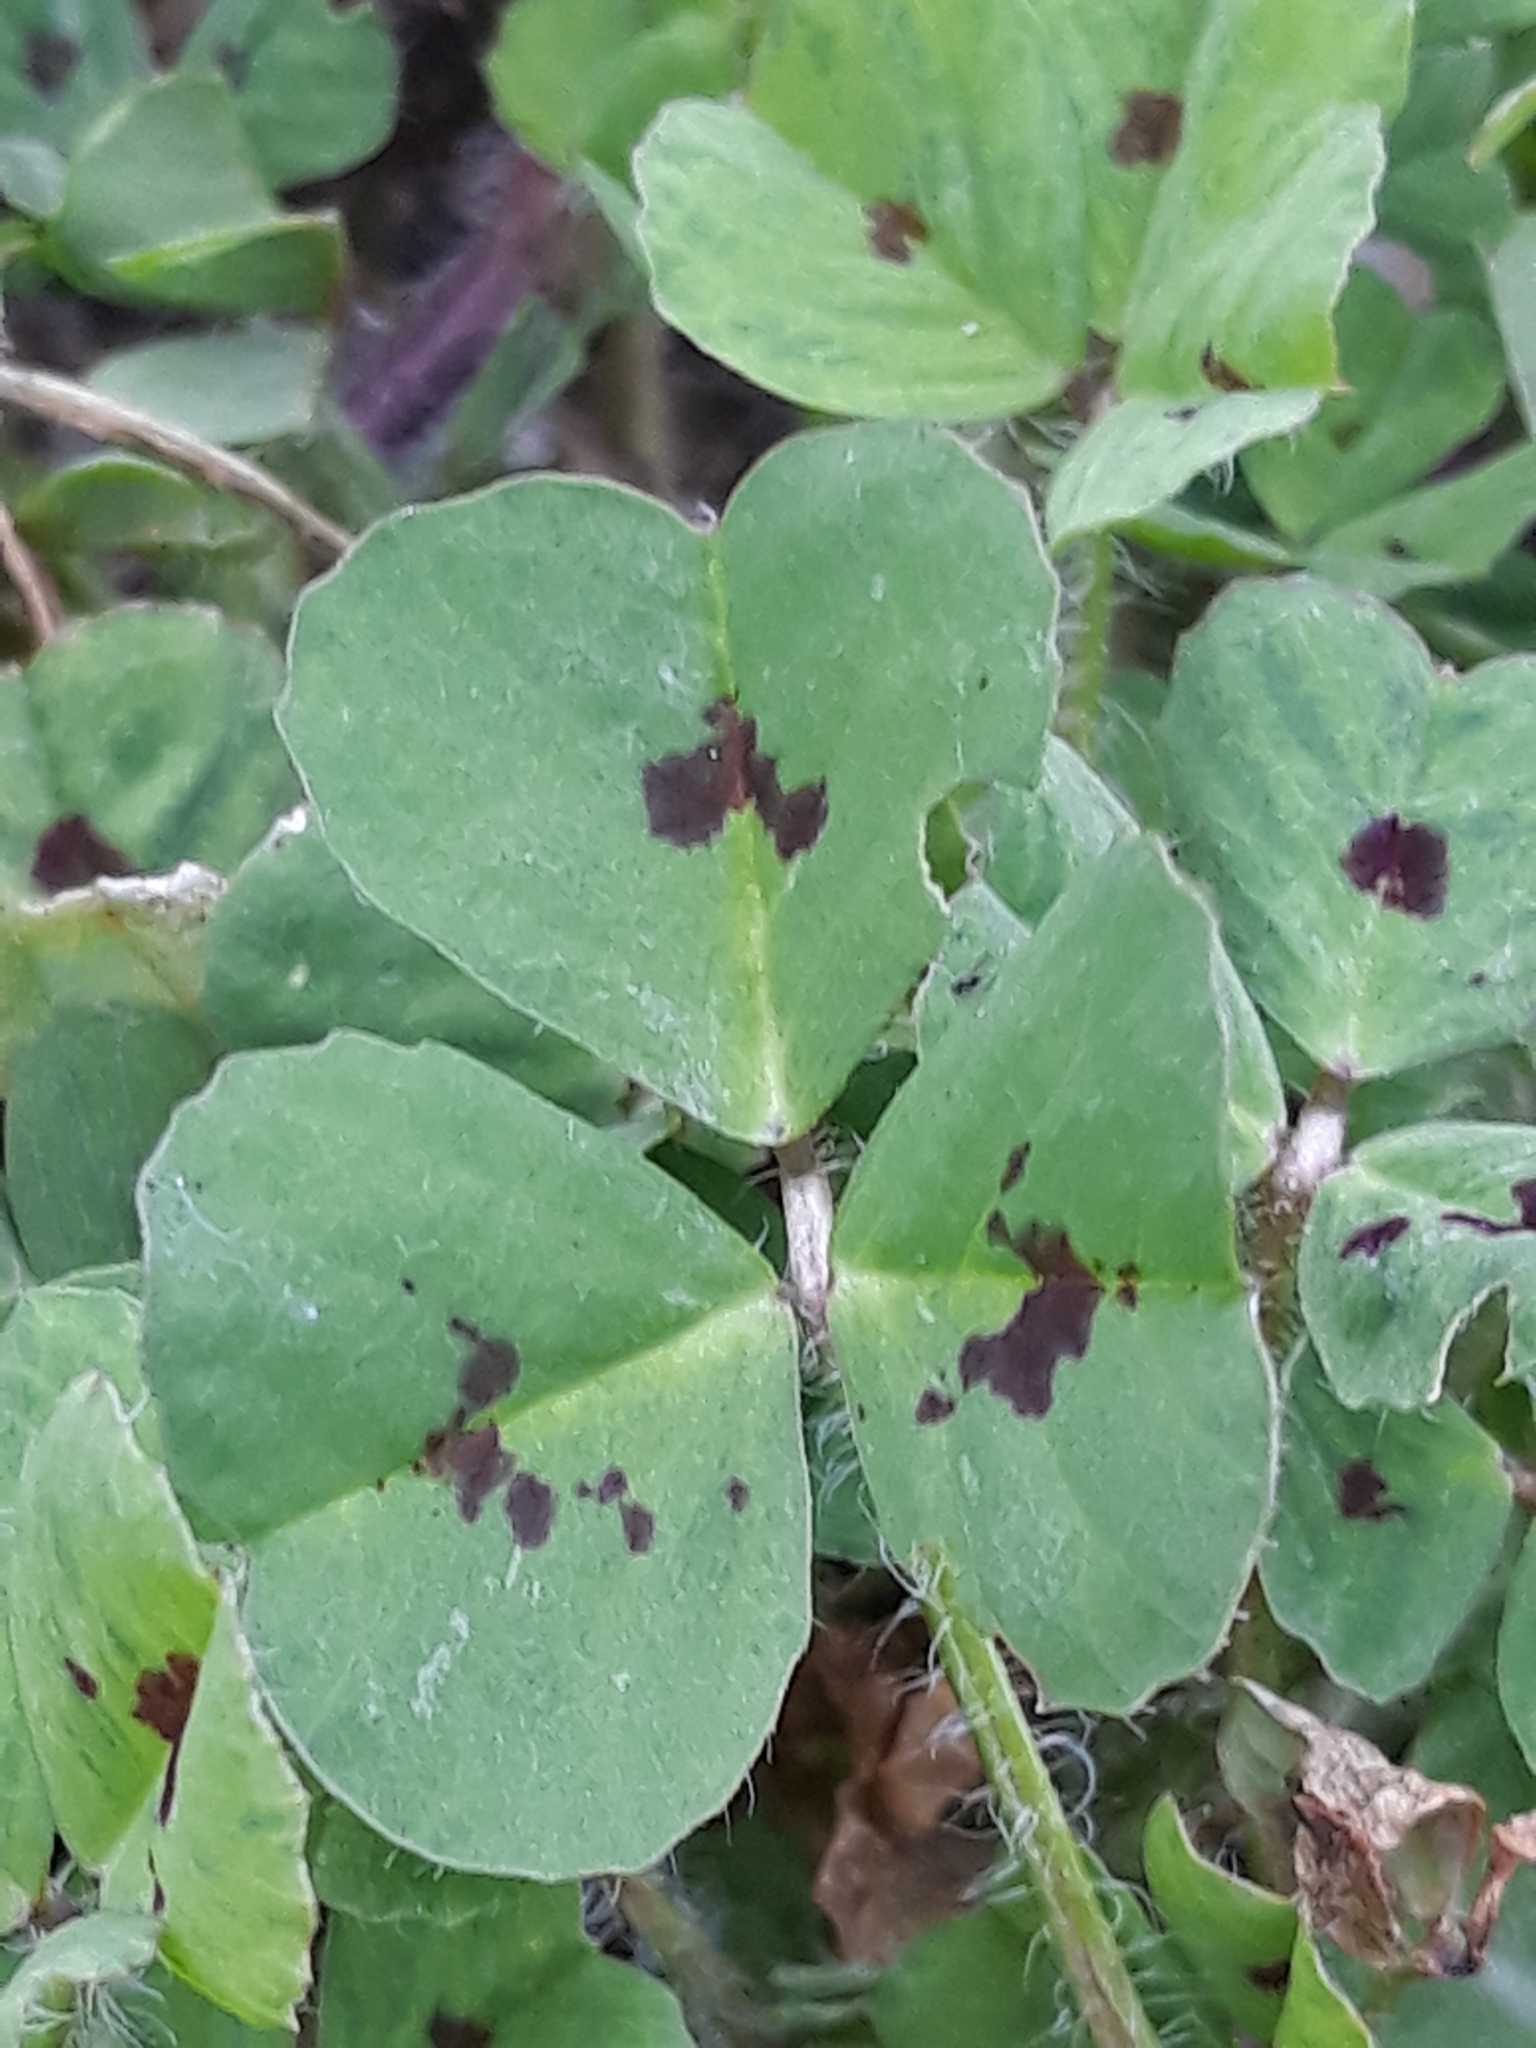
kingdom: Plantae
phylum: Tracheophyta
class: Magnoliopsida
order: Fabales
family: Fabaceae
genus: Medicago
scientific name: Medicago arabica
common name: Spotted medick
